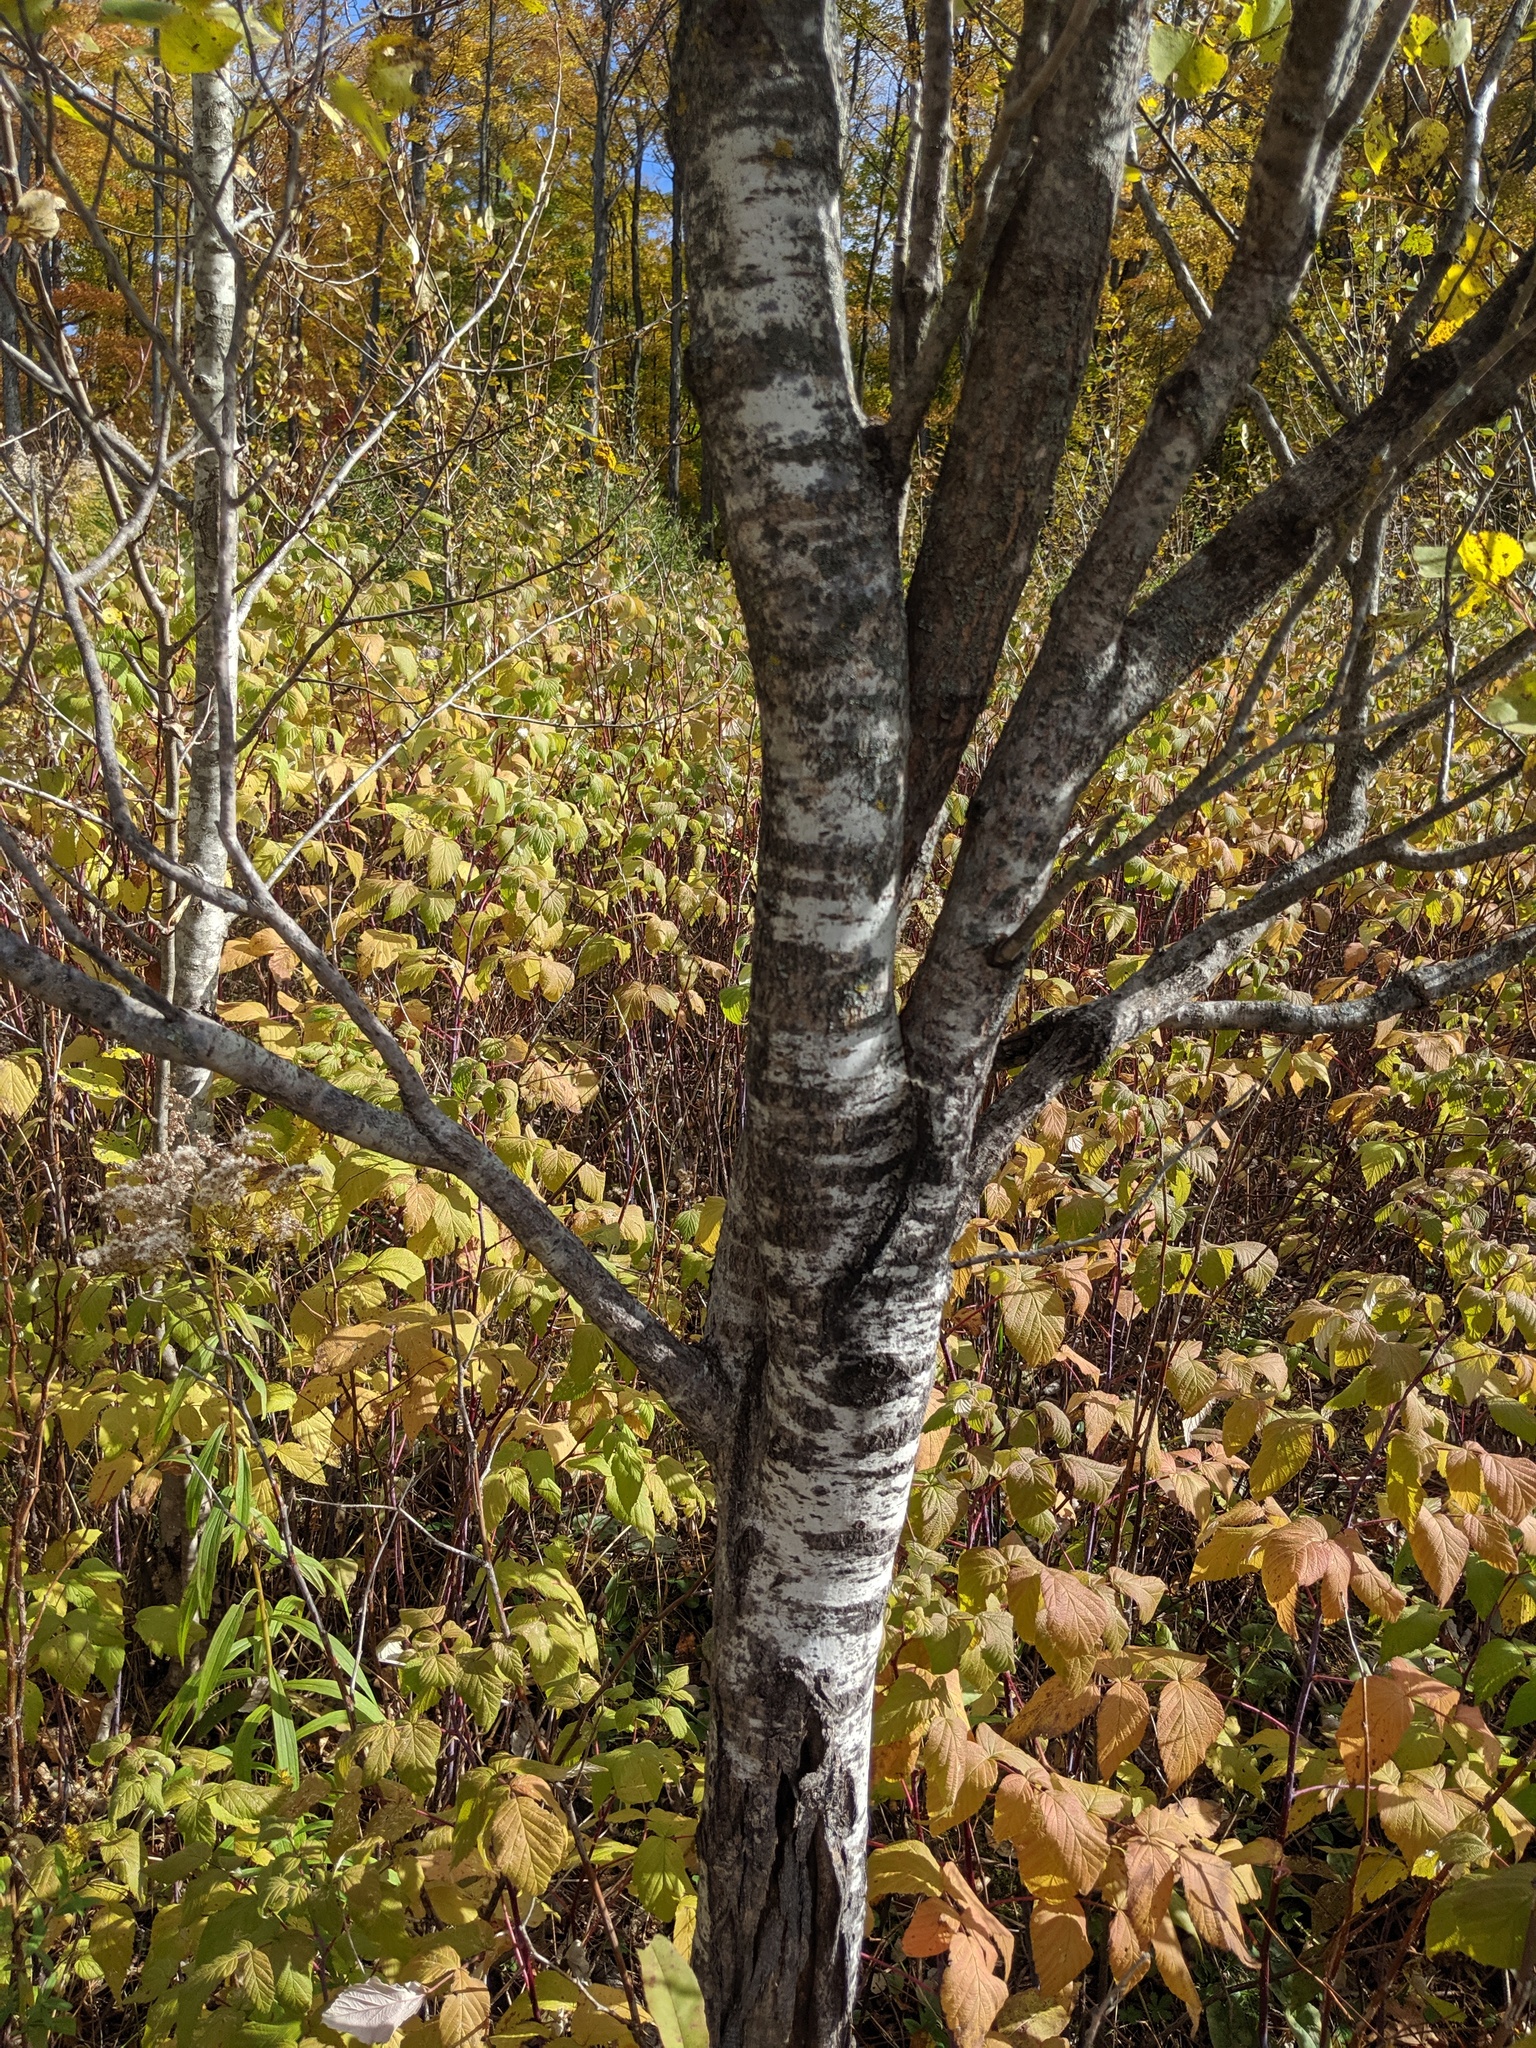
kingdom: Plantae
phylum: Tracheophyta
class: Magnoliopsida
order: Malpighiales
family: Salicaceae
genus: Populus
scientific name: Populus tremuloides
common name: Quaking aspen
